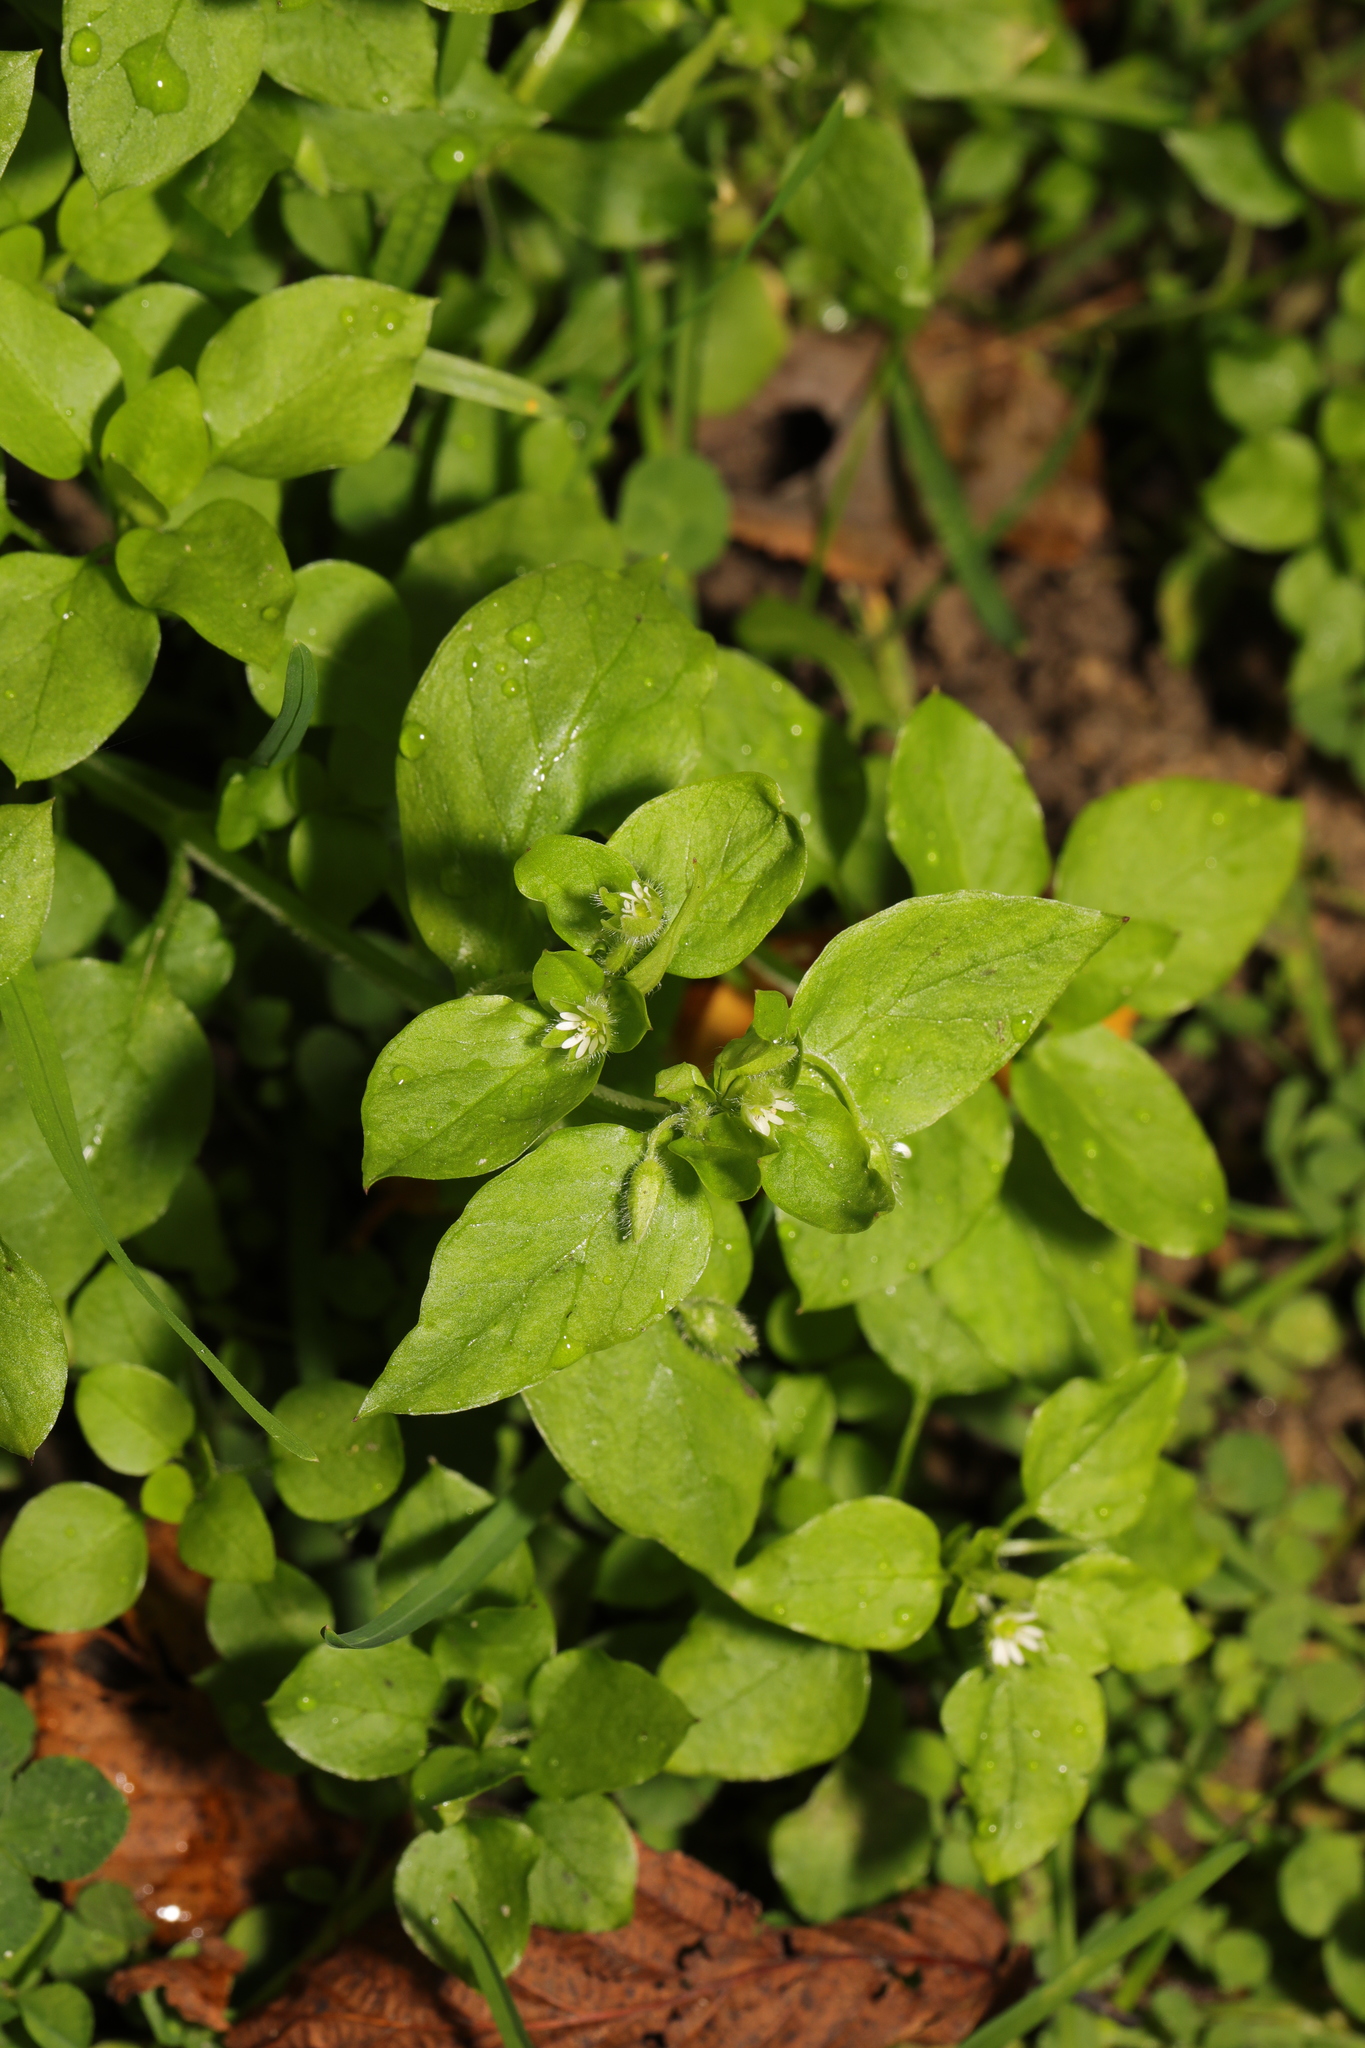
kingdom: Plantae
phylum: Tracheophyta
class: Magnoliopsida
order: Caryophyllales
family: Caryophyllaceae
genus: Stellaria
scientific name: Stellaria media
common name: Common chickweed
